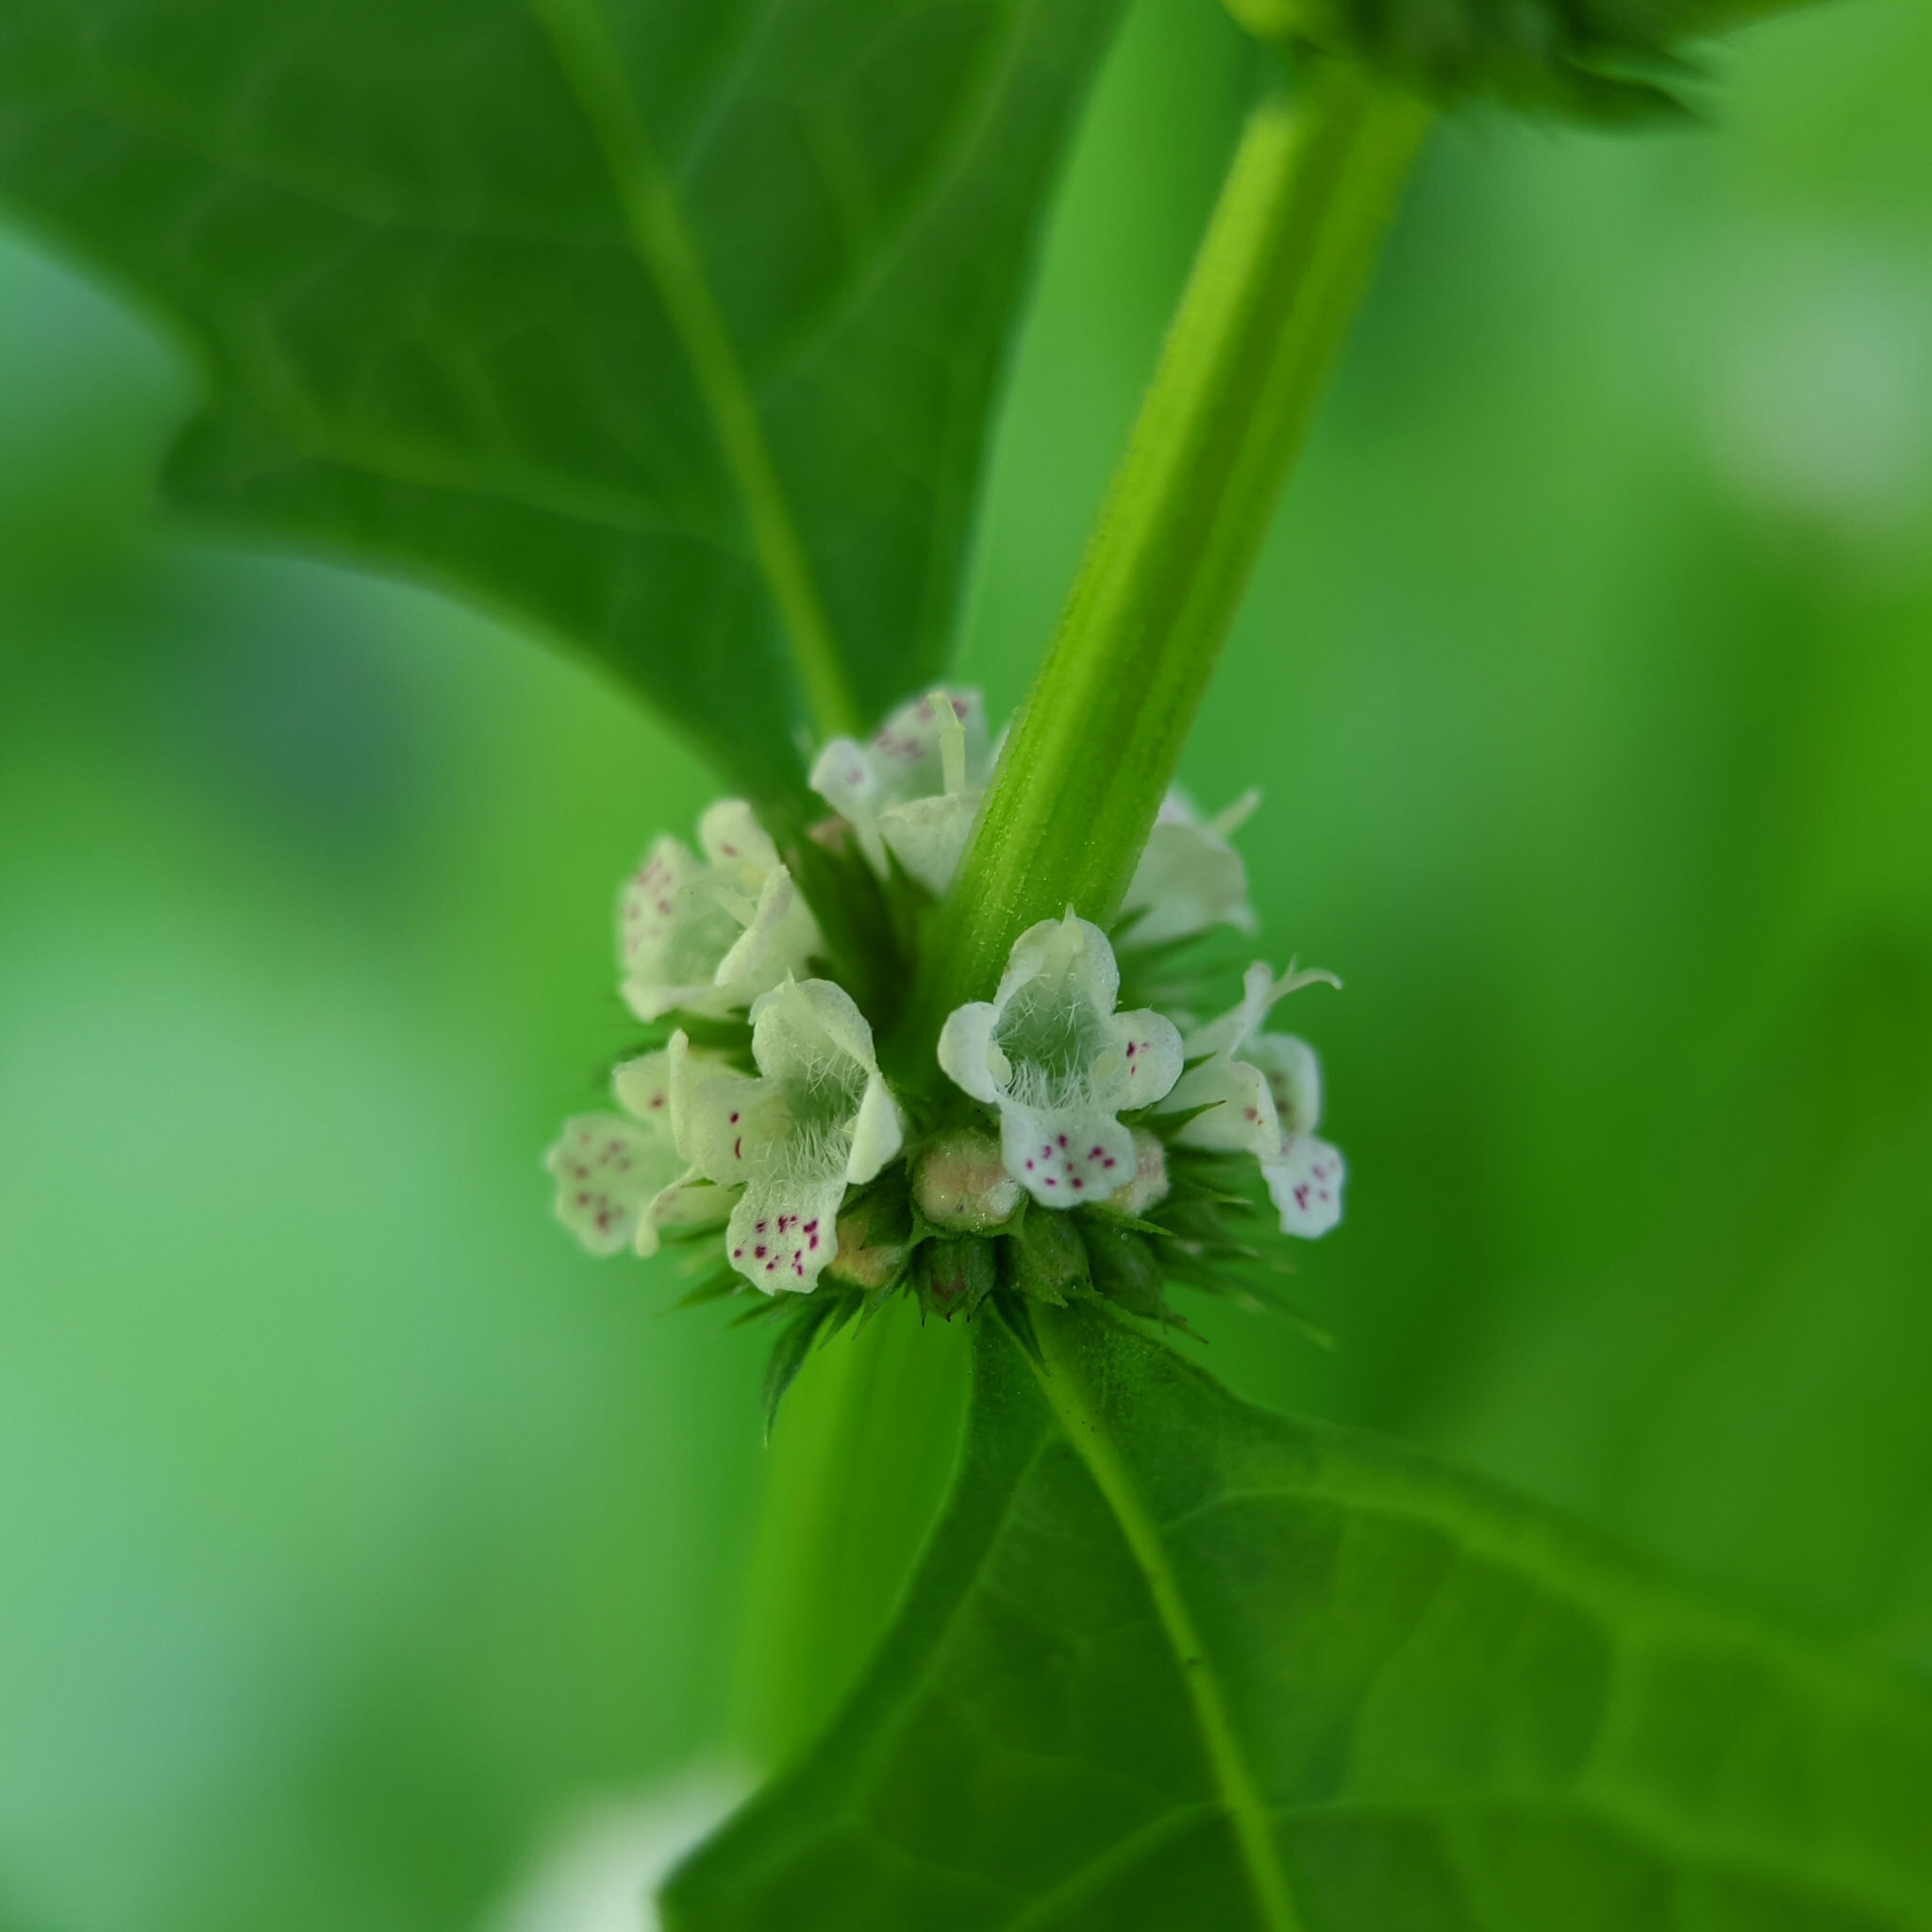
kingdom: Plantae
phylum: Tracheophyta
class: Magnoliopsida
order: Lamiales
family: Lamiaceae
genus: Lycopus
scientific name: Lycopus europaeus
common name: European bugleweed
